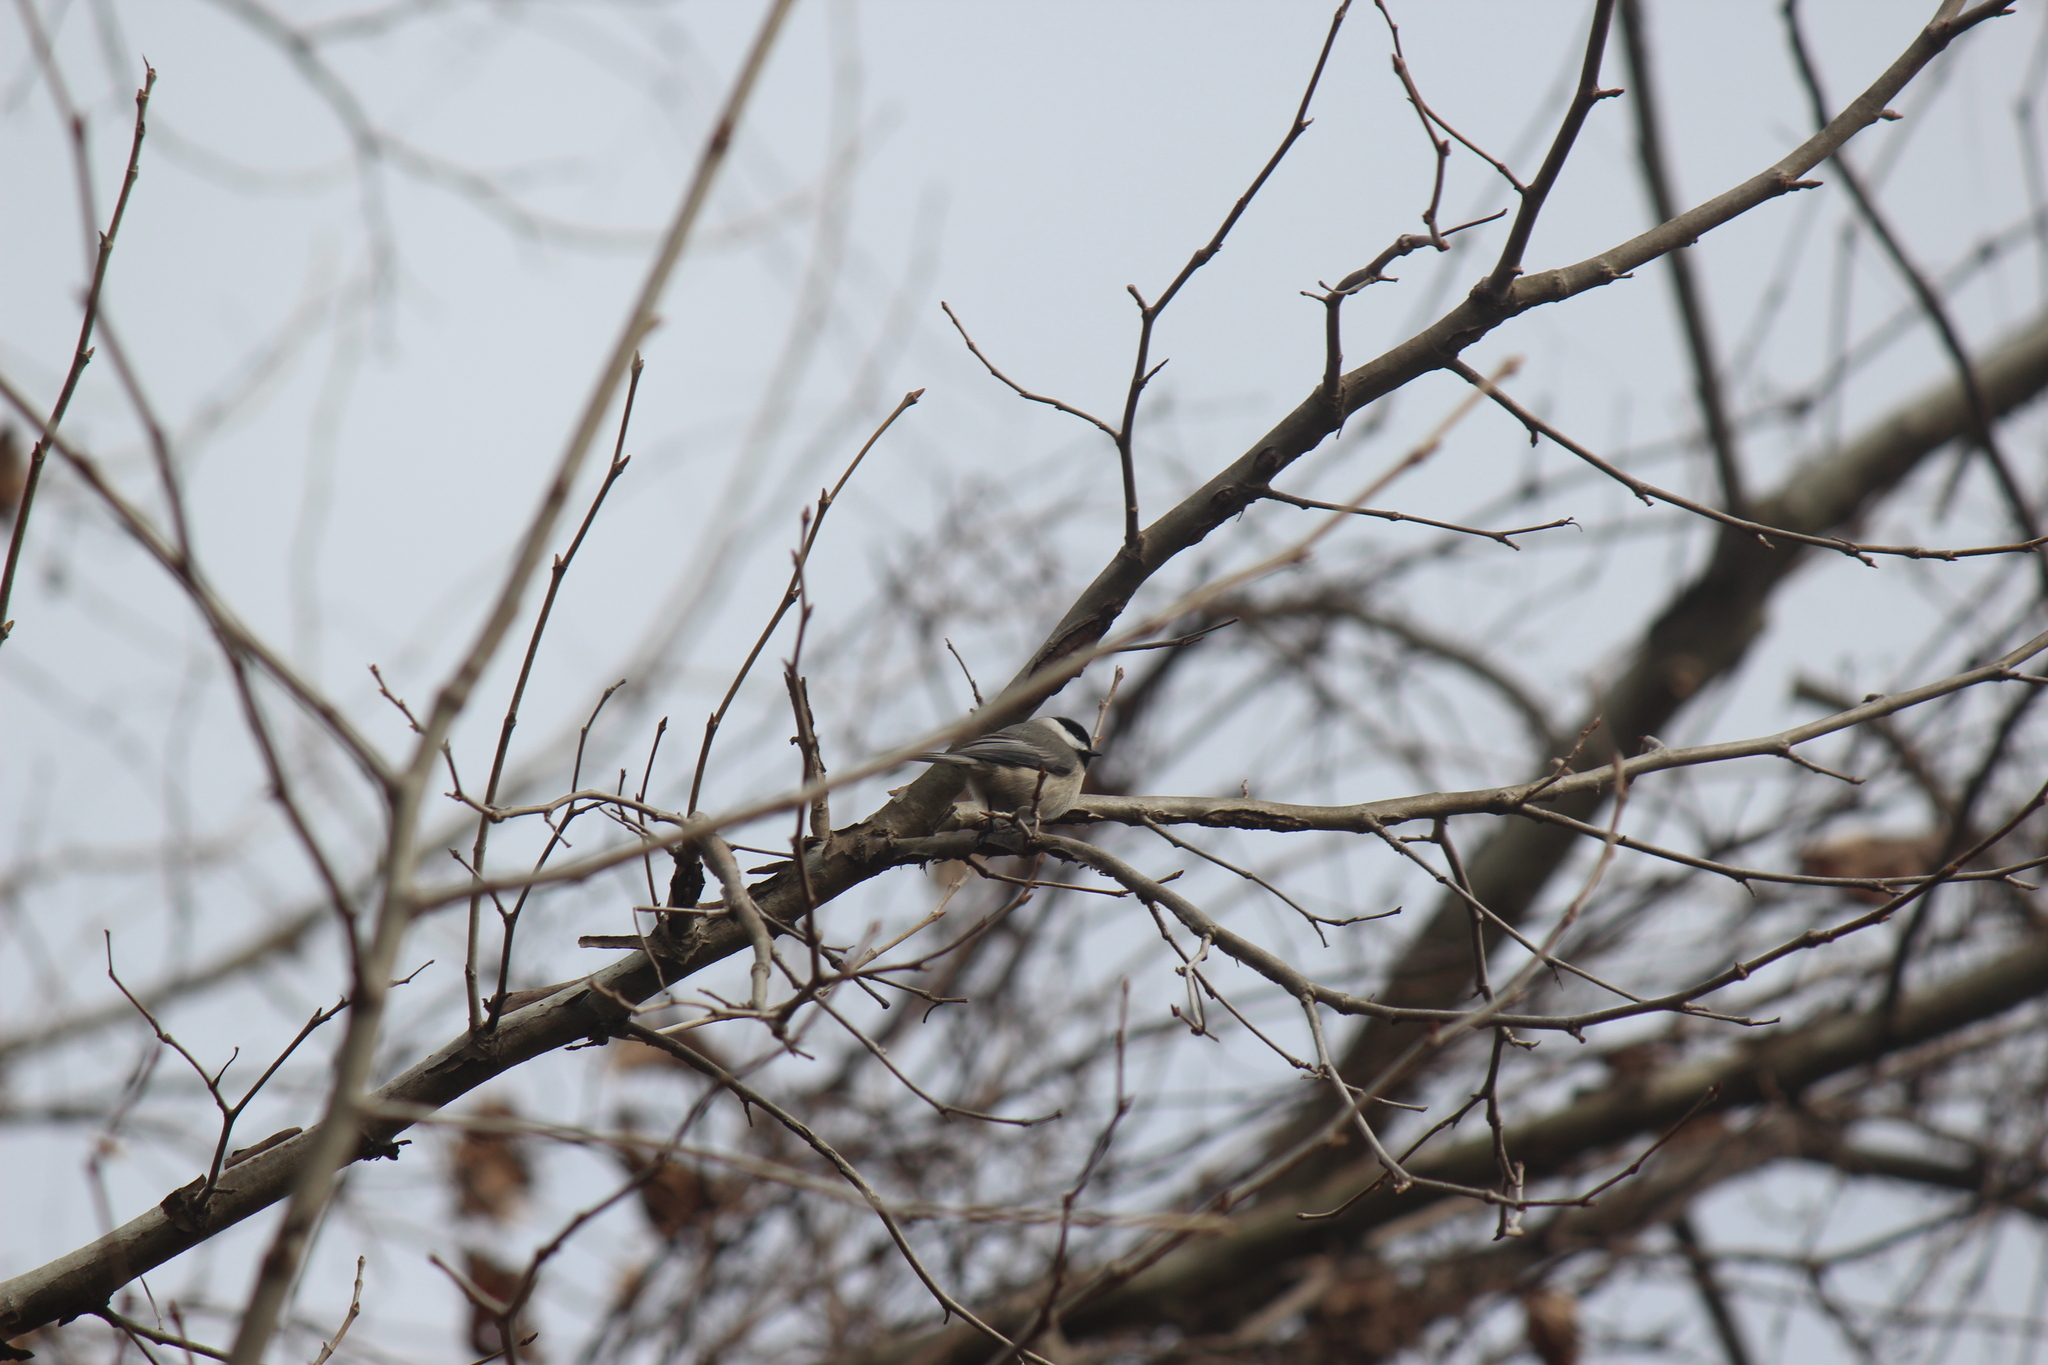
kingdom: Animalia
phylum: Chordata
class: Aves
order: Passeriformes
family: Paridae
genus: Poecile
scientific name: Poecile carolinensis
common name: Carolina chickadee
